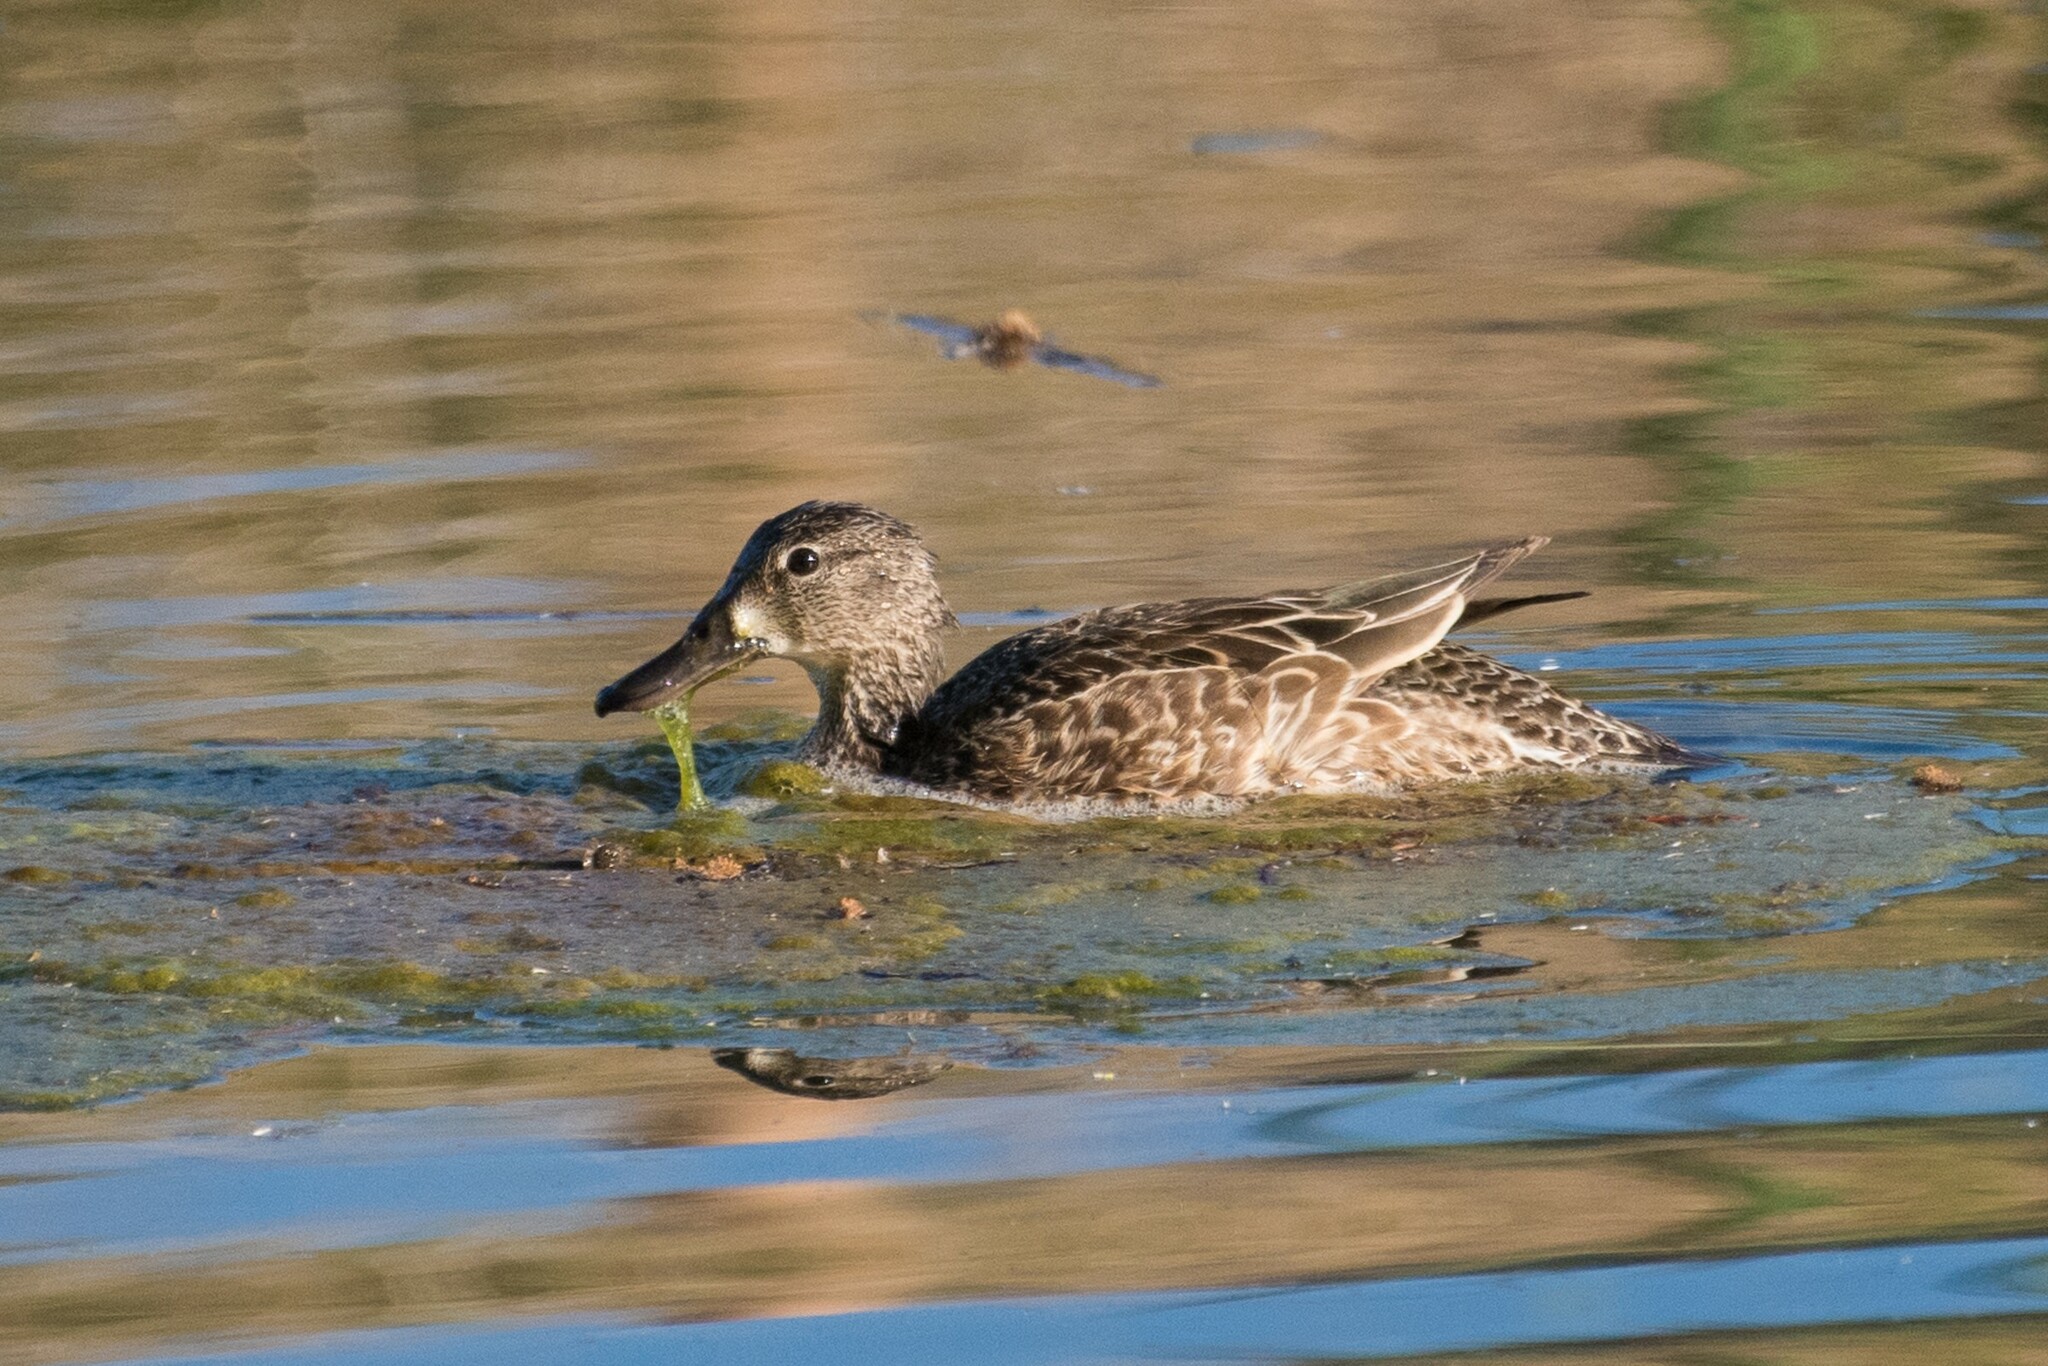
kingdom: Animalia
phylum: Chordata
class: Aves
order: Anseriformes
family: Anatidae
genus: Spatula
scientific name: Spatula discors
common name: Blue-winged teal
